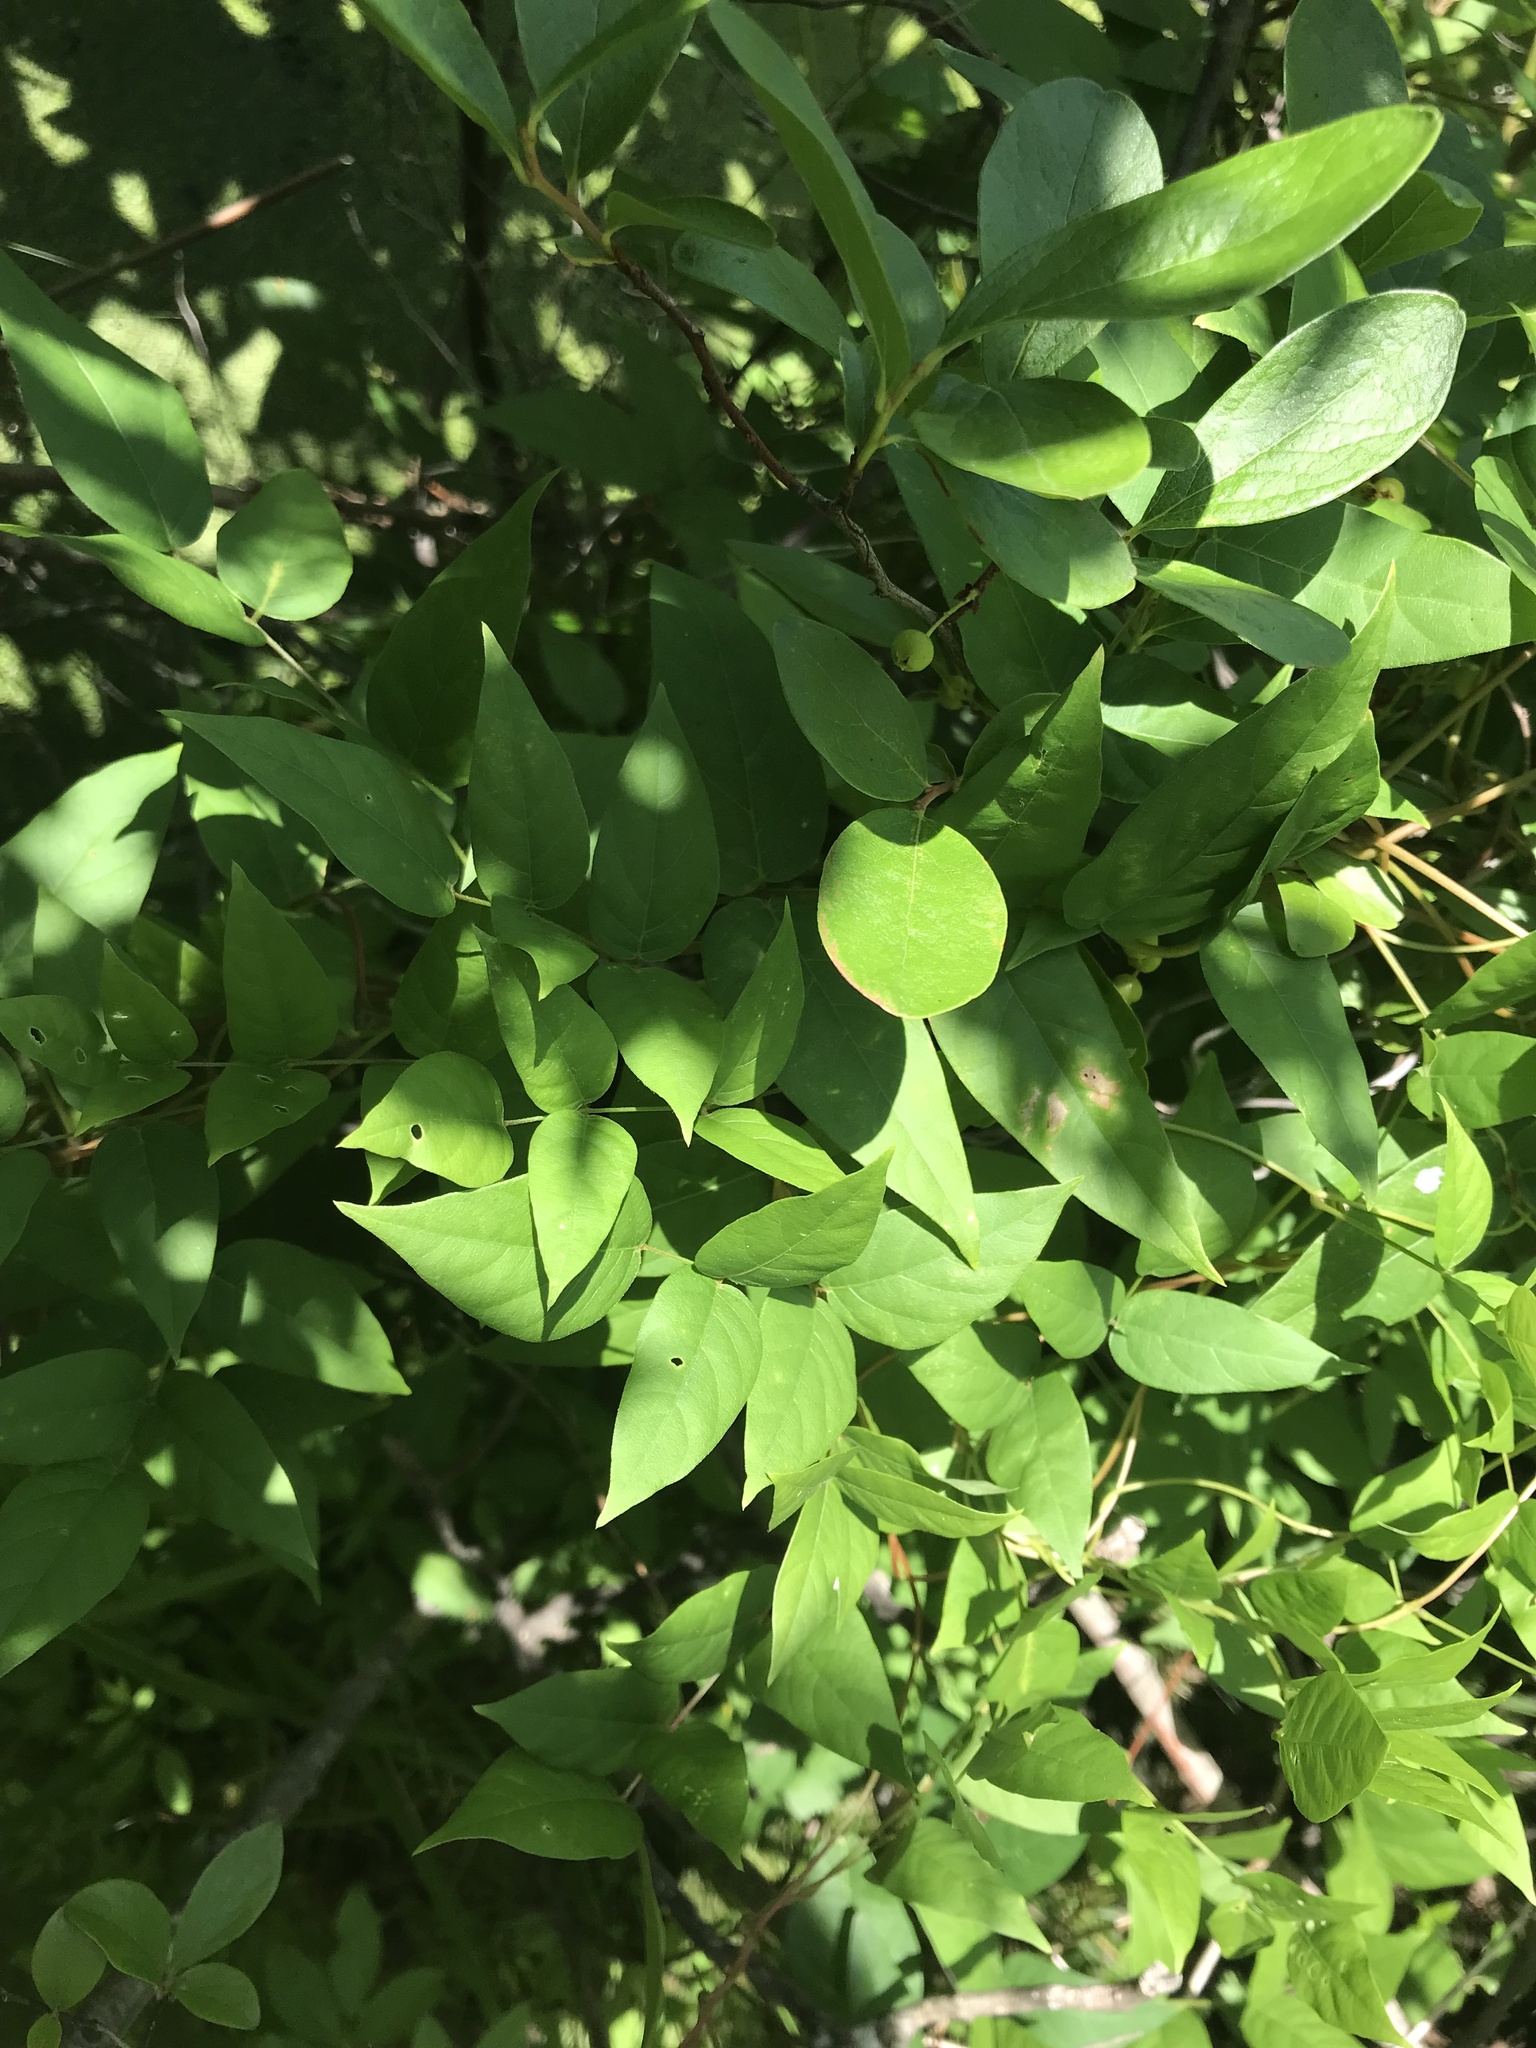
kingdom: Plantae
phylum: Tracheophyta
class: Magnoliopsida
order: Fabales
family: Fabaceae
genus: Apios
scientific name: Apios americana
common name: American potato-bean
